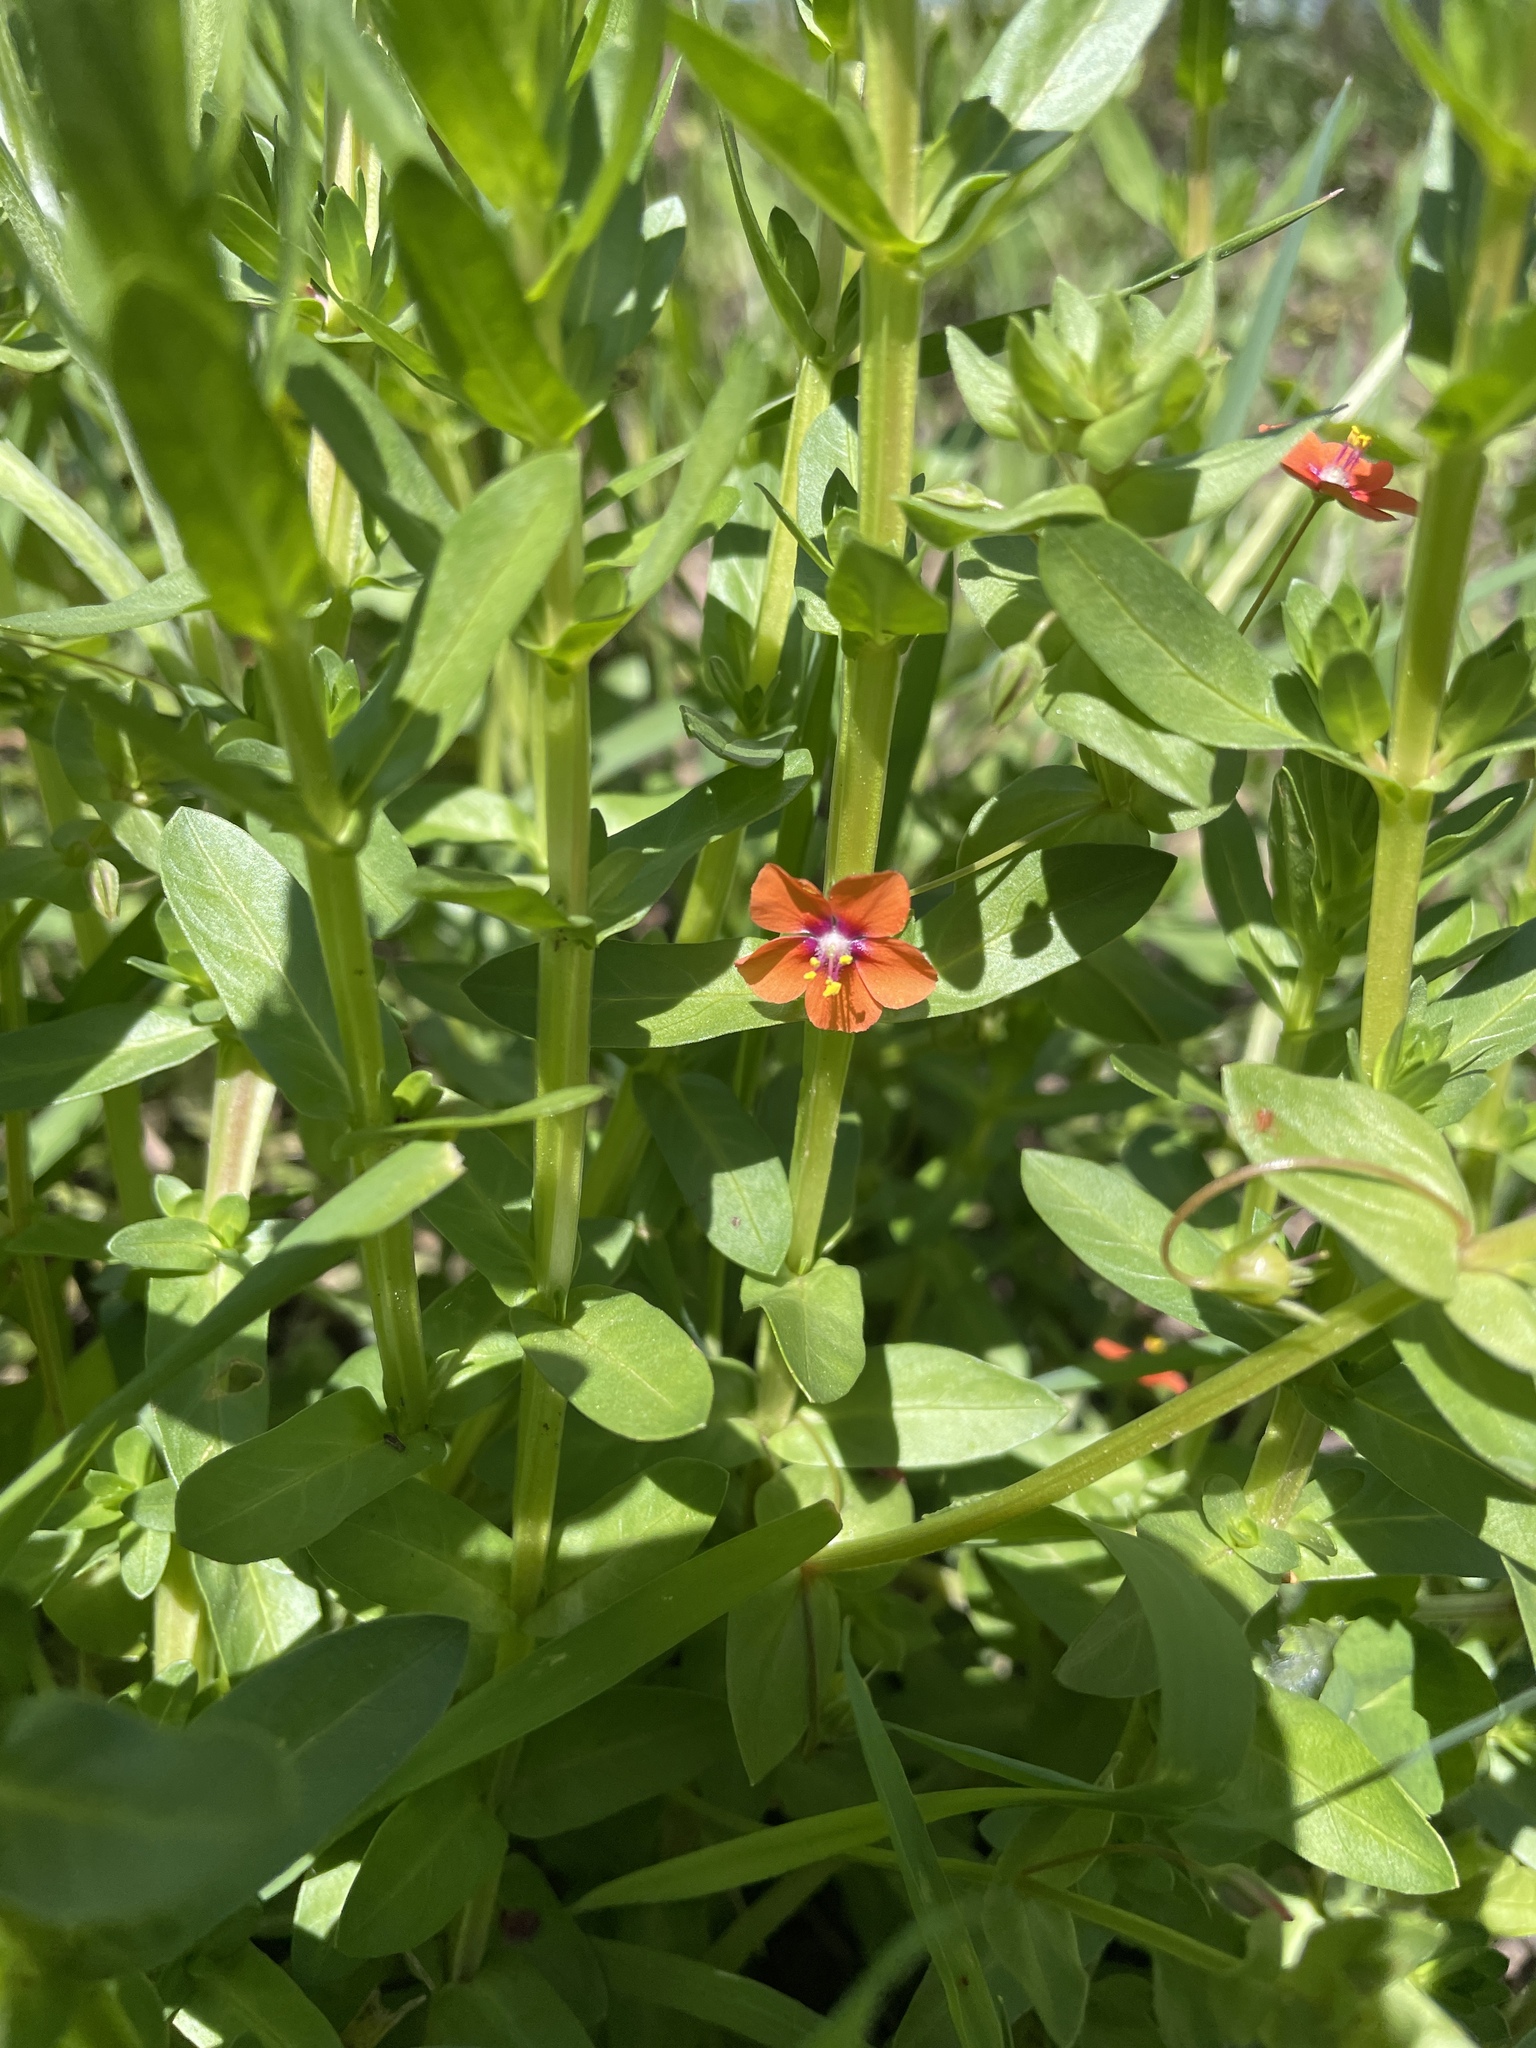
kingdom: Plantae
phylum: Tracheophyta
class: Magnoliopsida
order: Ericales
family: Primulaceae
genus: Lysimachia
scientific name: Lysimachia arvensis
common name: Scarlet pimpernel
